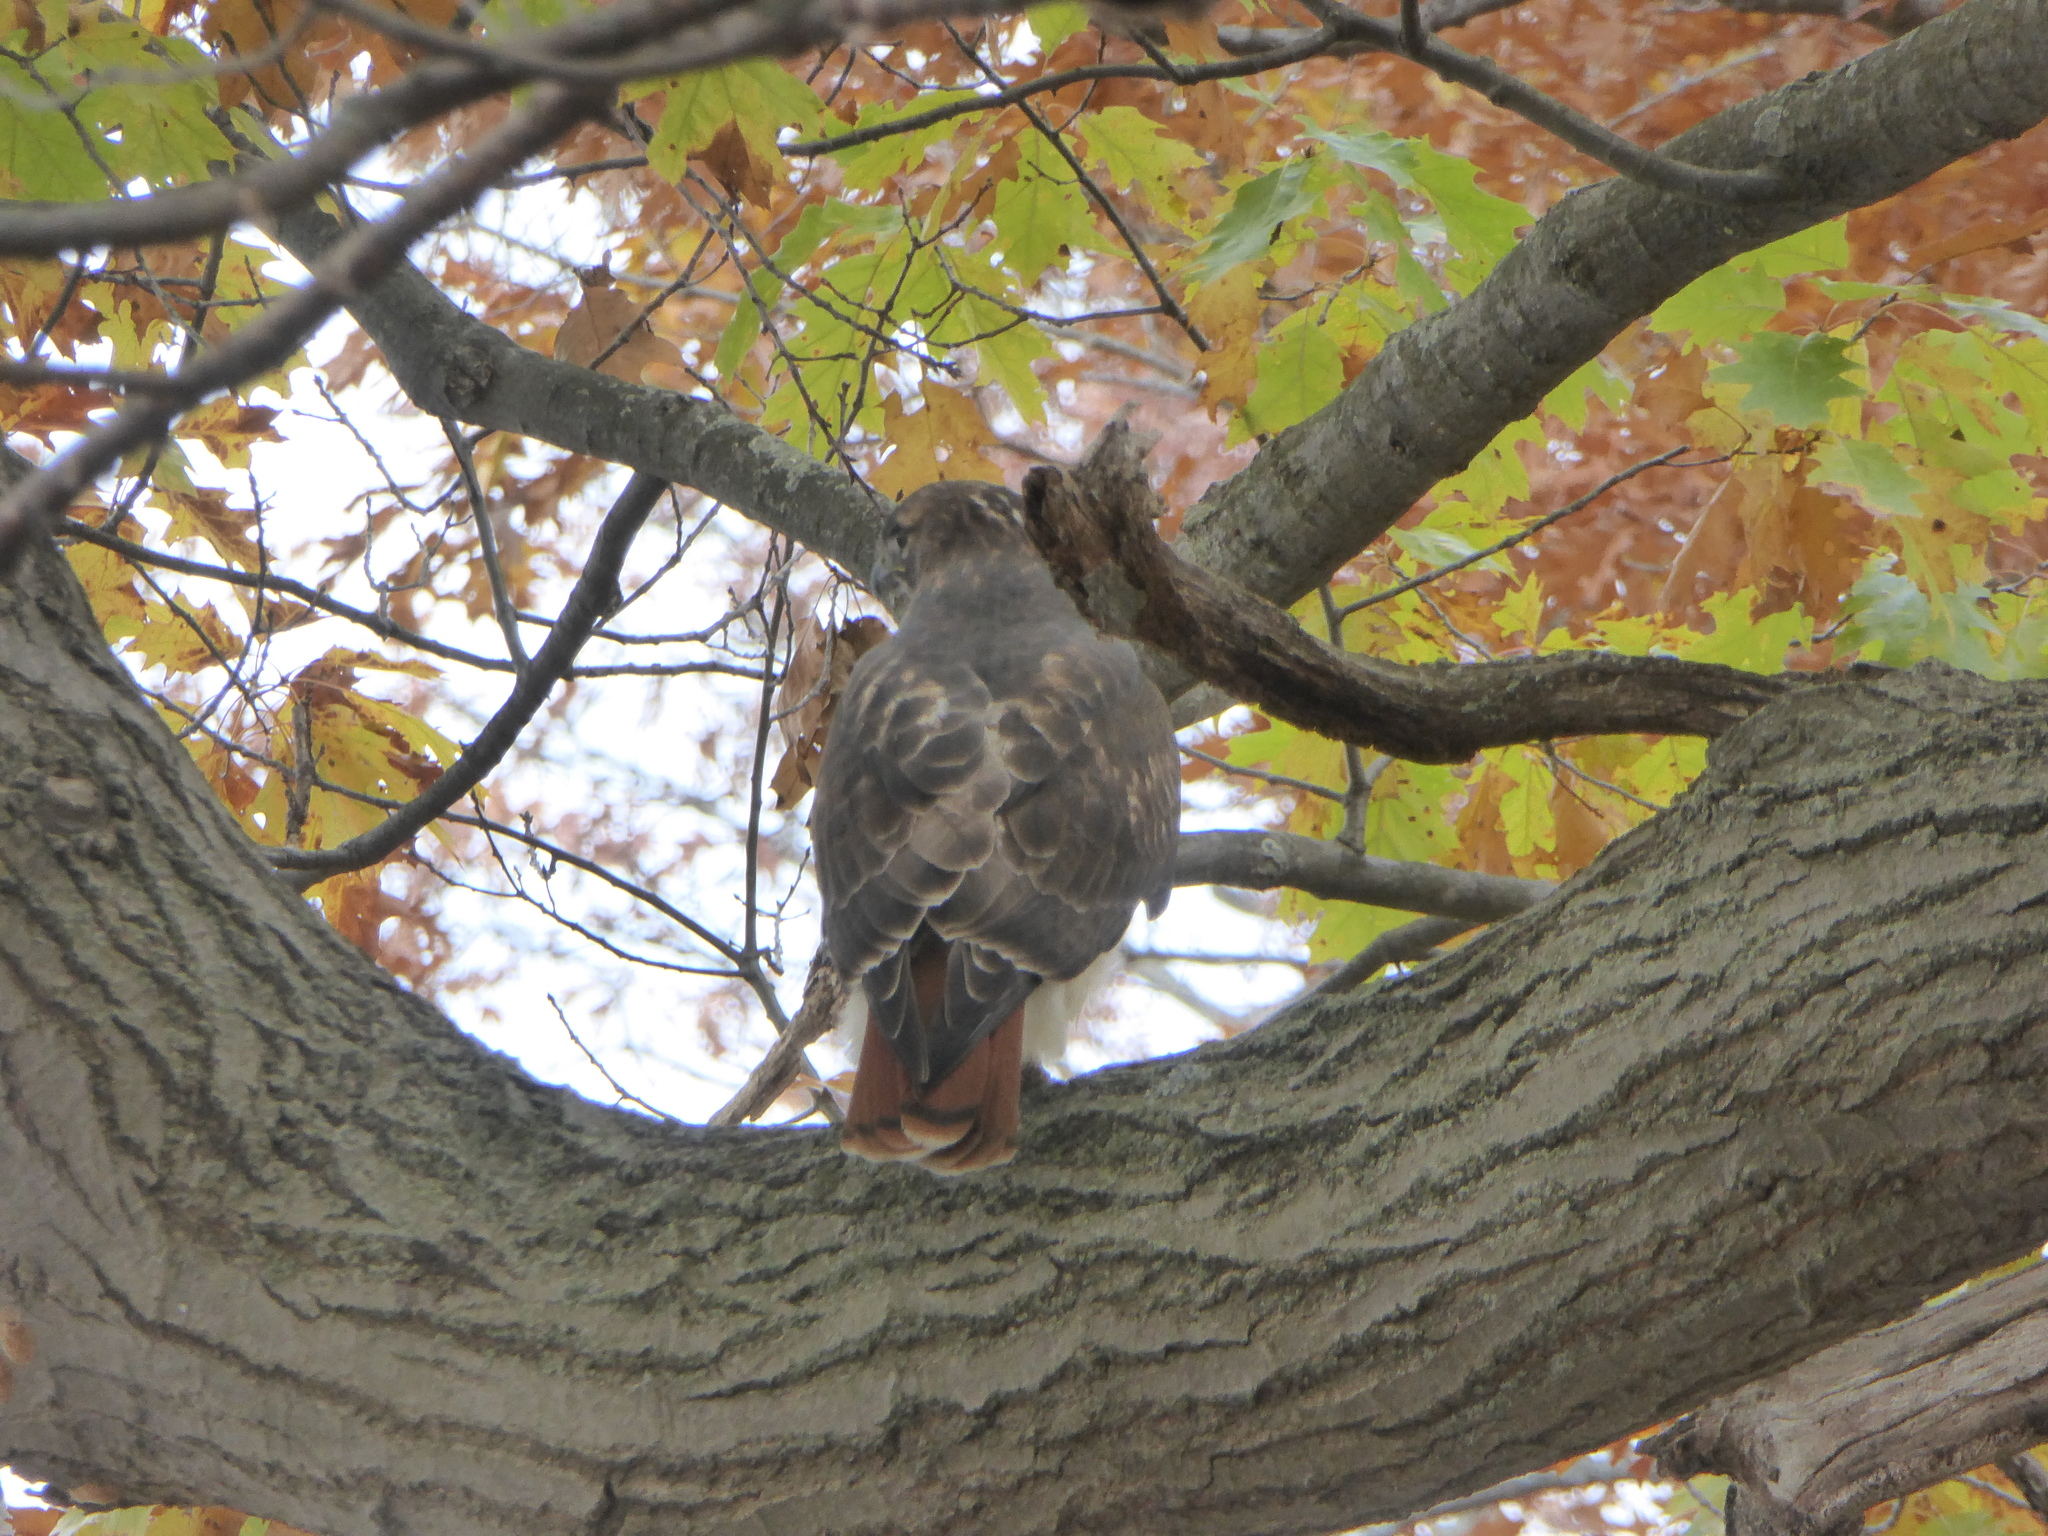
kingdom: Animalia
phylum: Chordata
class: Aves
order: Accipitriformes
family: Accipitridae
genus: Buteo
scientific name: Buteo jamaicensis
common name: Red-tailed hawk
